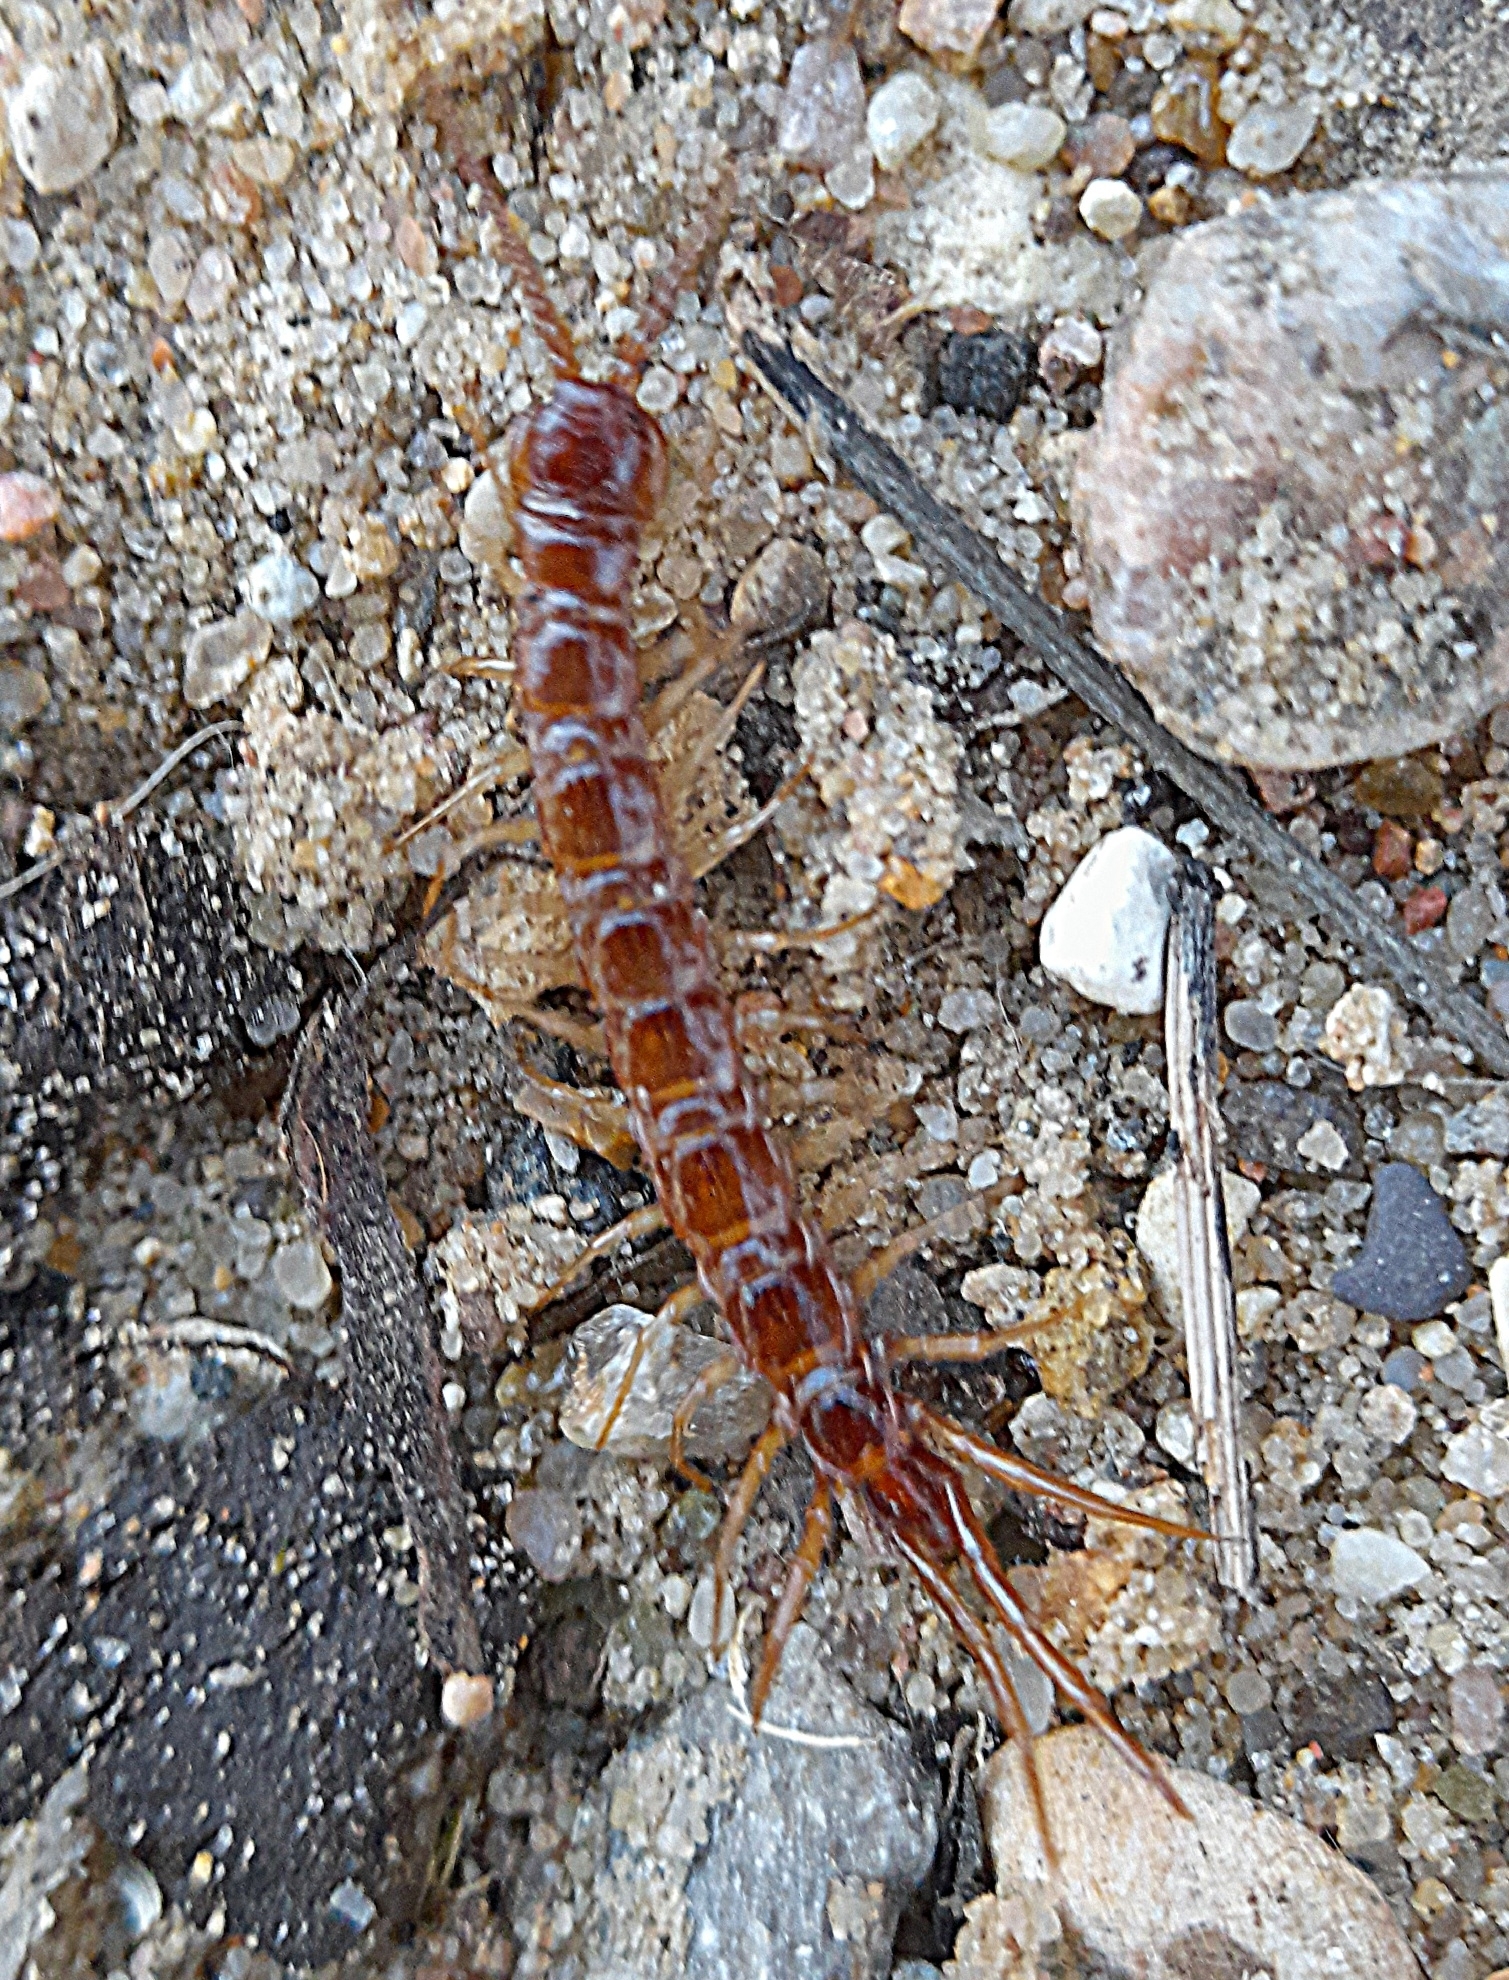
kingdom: Animalia
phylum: Arthropoda
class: Chilopoda
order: Lithobiomorpha
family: Lithobiidae
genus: Lithobius
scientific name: Lithobius forficatus
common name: Centipede
